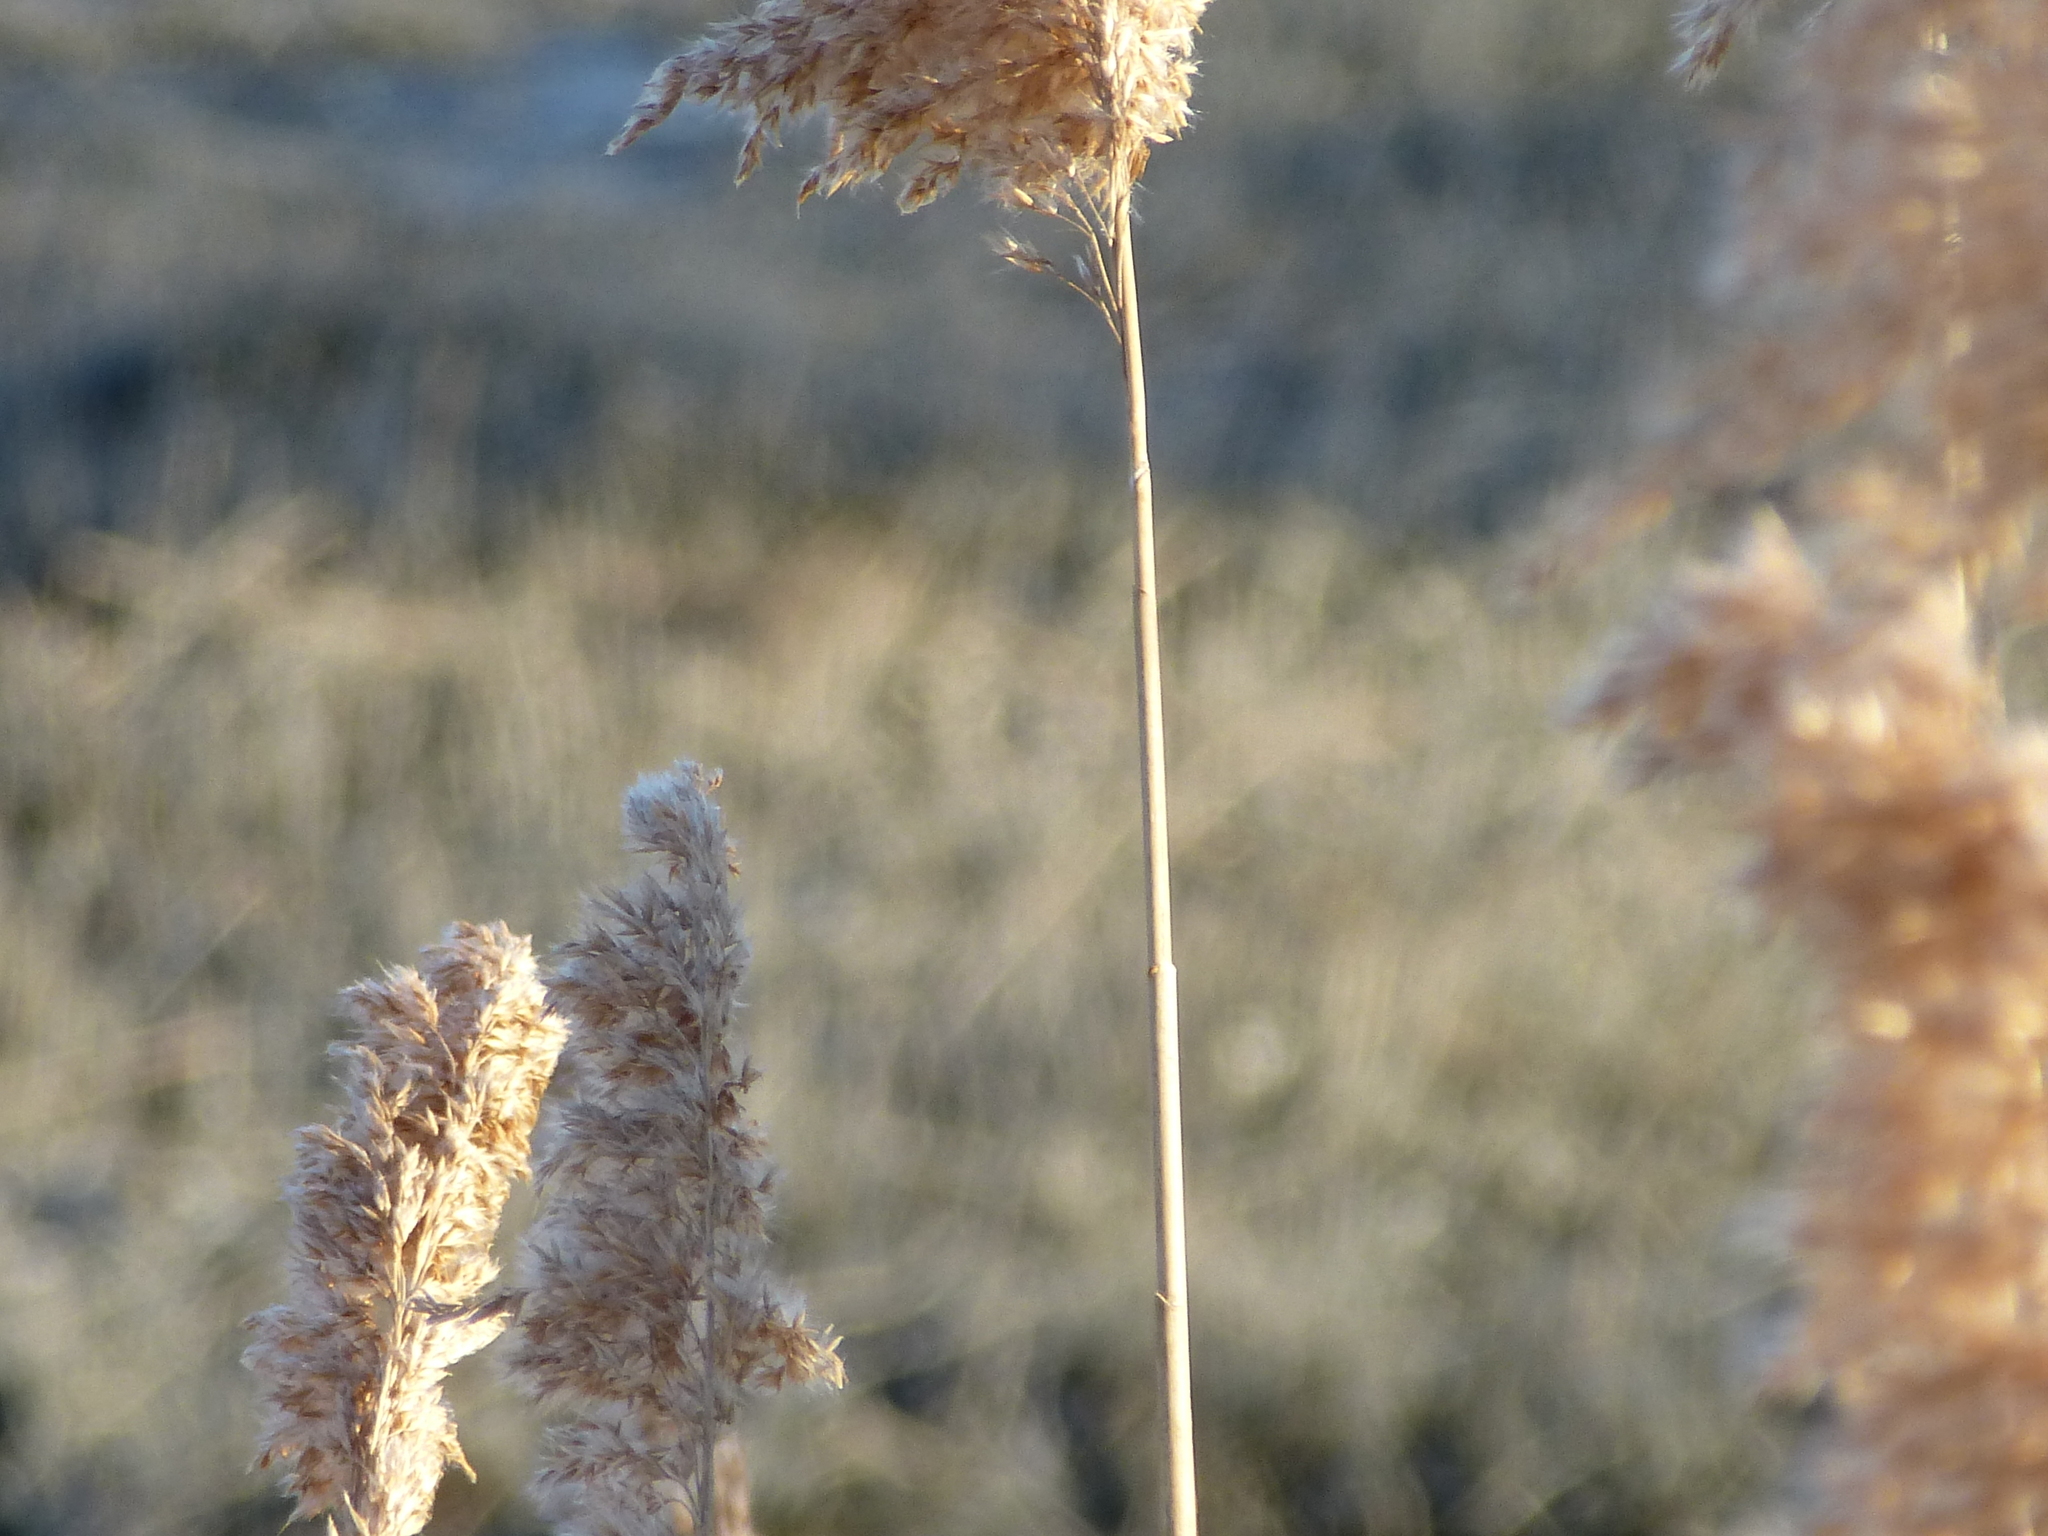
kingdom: Plantae
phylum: Tracheophyta
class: Liliopsida
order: Poales
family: Poaceae
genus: Phragmites
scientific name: Phragmites australis
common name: Common reed
